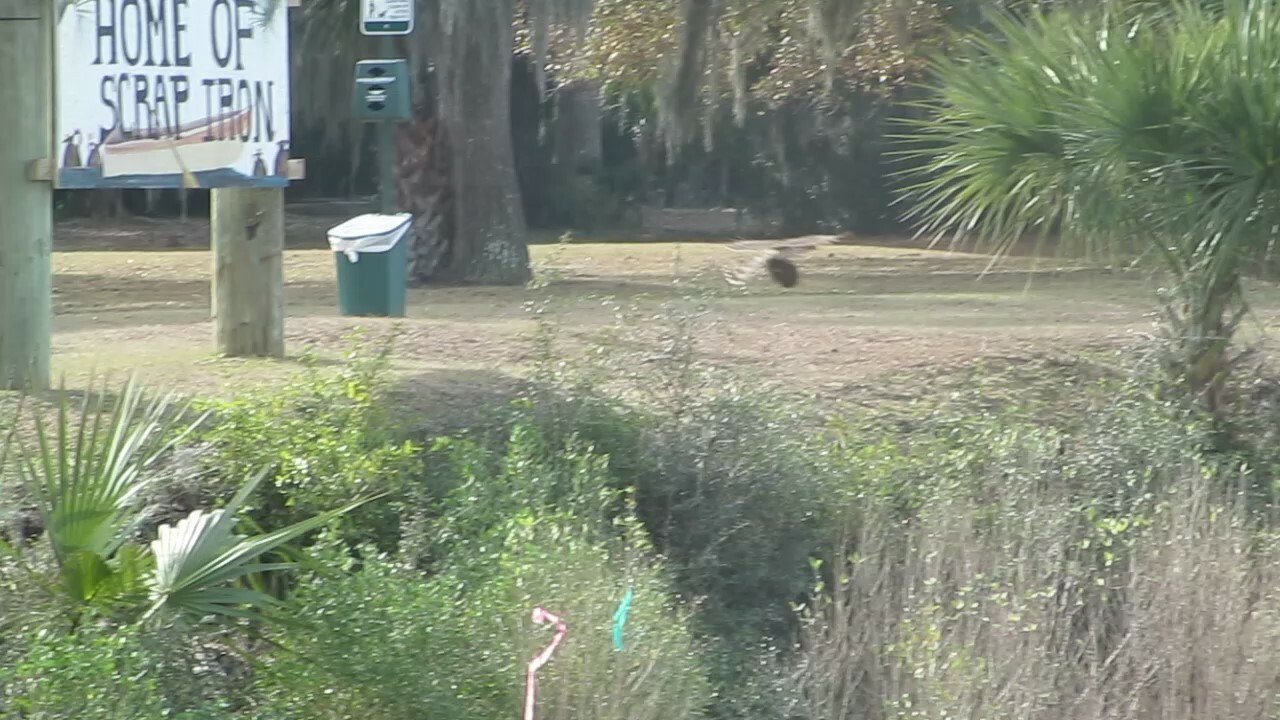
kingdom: Animalia
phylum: Chordata
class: Mammalia
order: Rodentia
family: Sciuridae
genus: Sciurus
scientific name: Sciurus carolinensis
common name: Eastern gray squirrel
